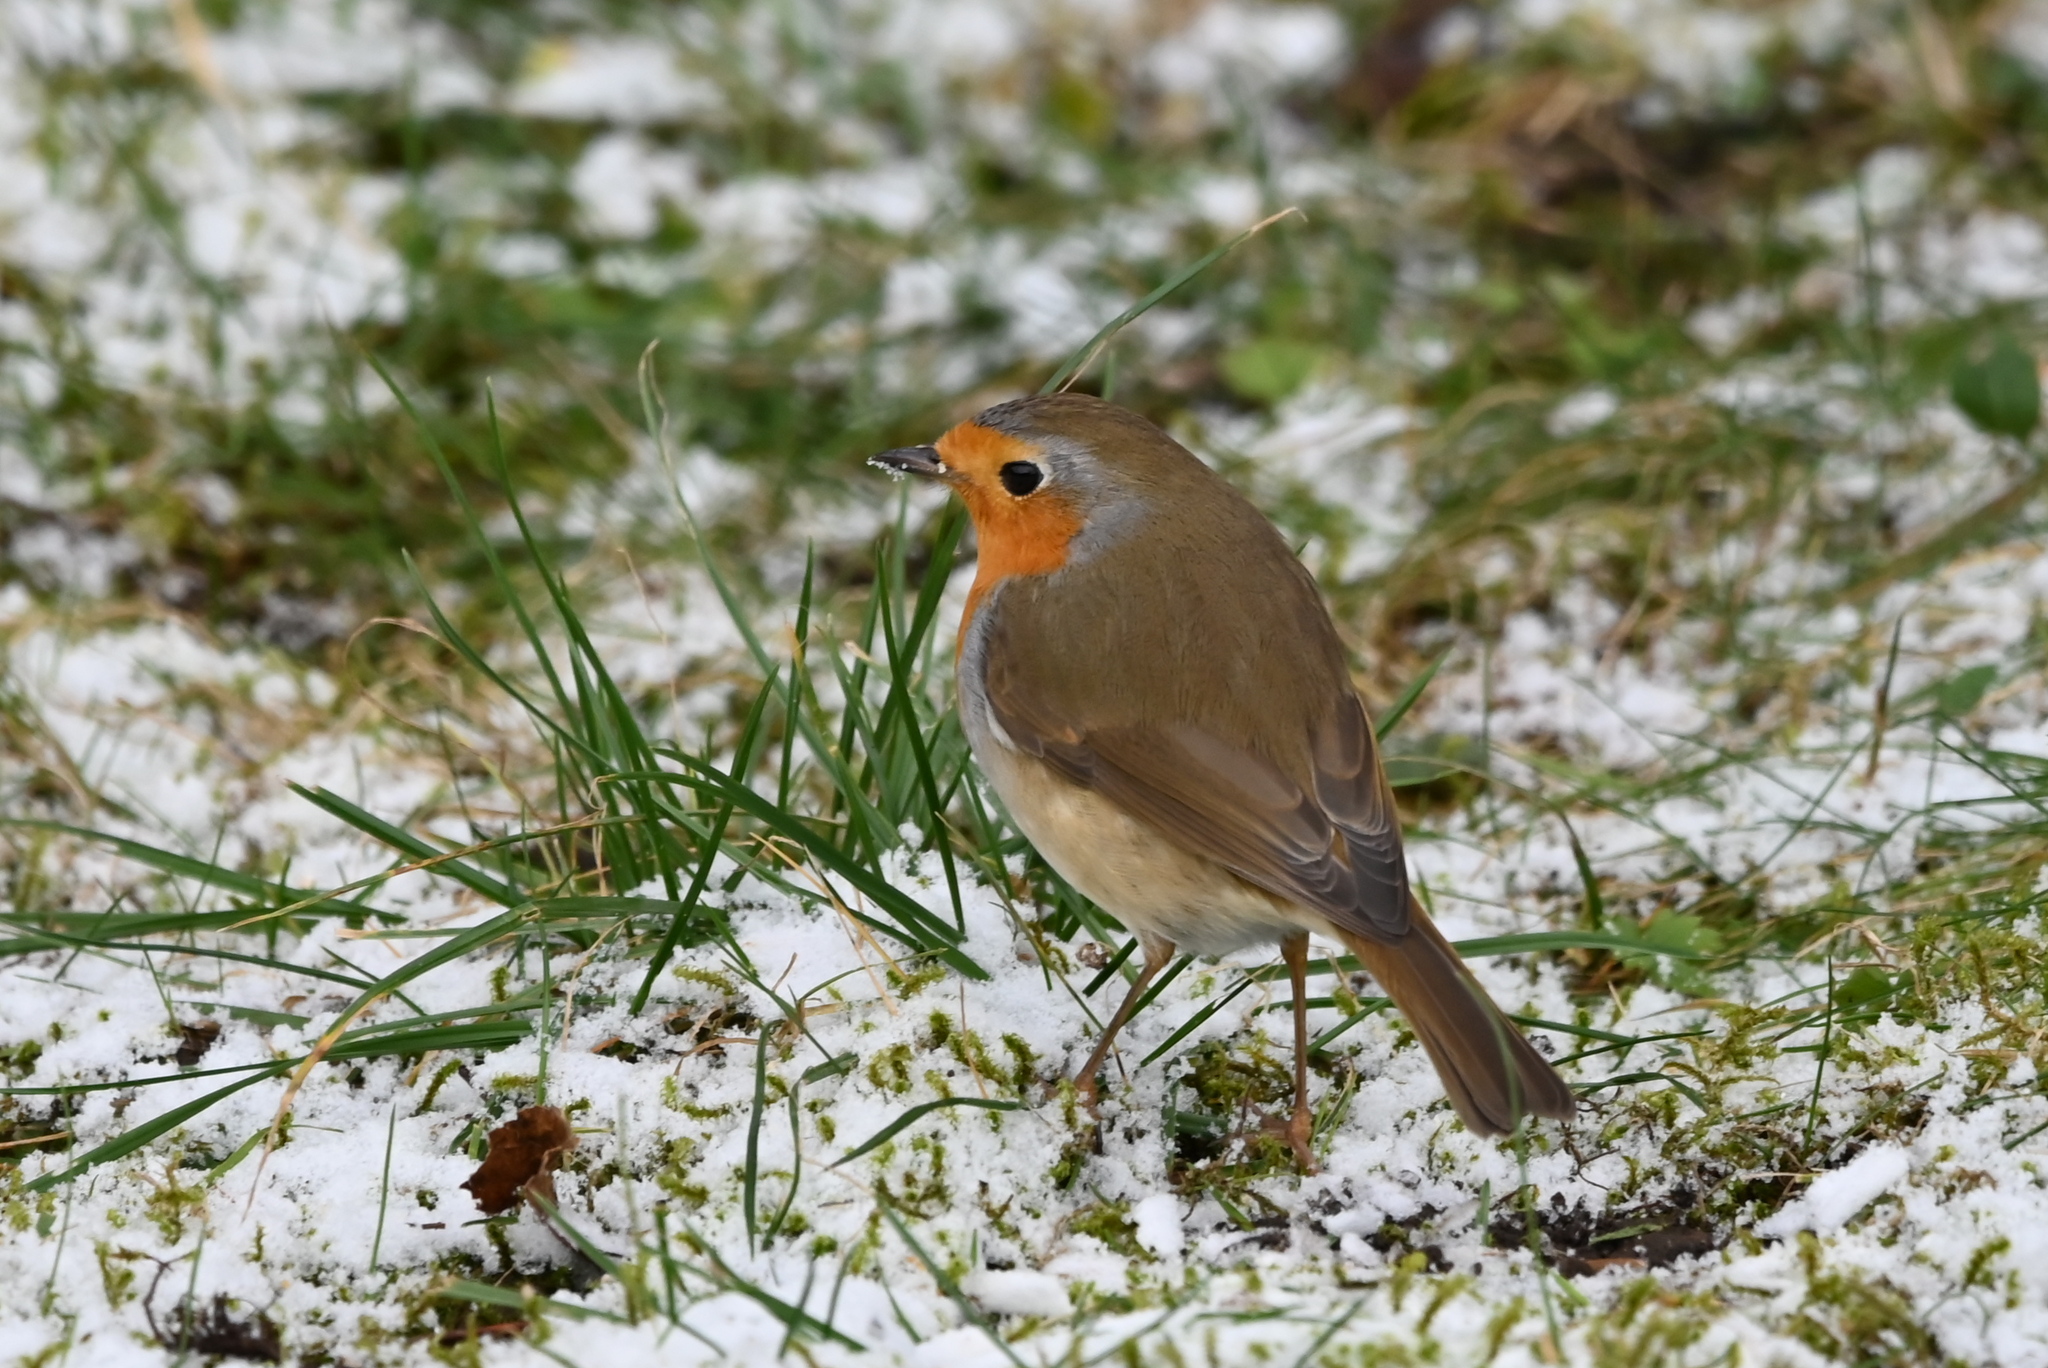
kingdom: Animalia
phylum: Chordata
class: Aves
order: Passeriformes
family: Muscicapidae
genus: Erithacus
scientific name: Erithacus rubecula
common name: European robin
